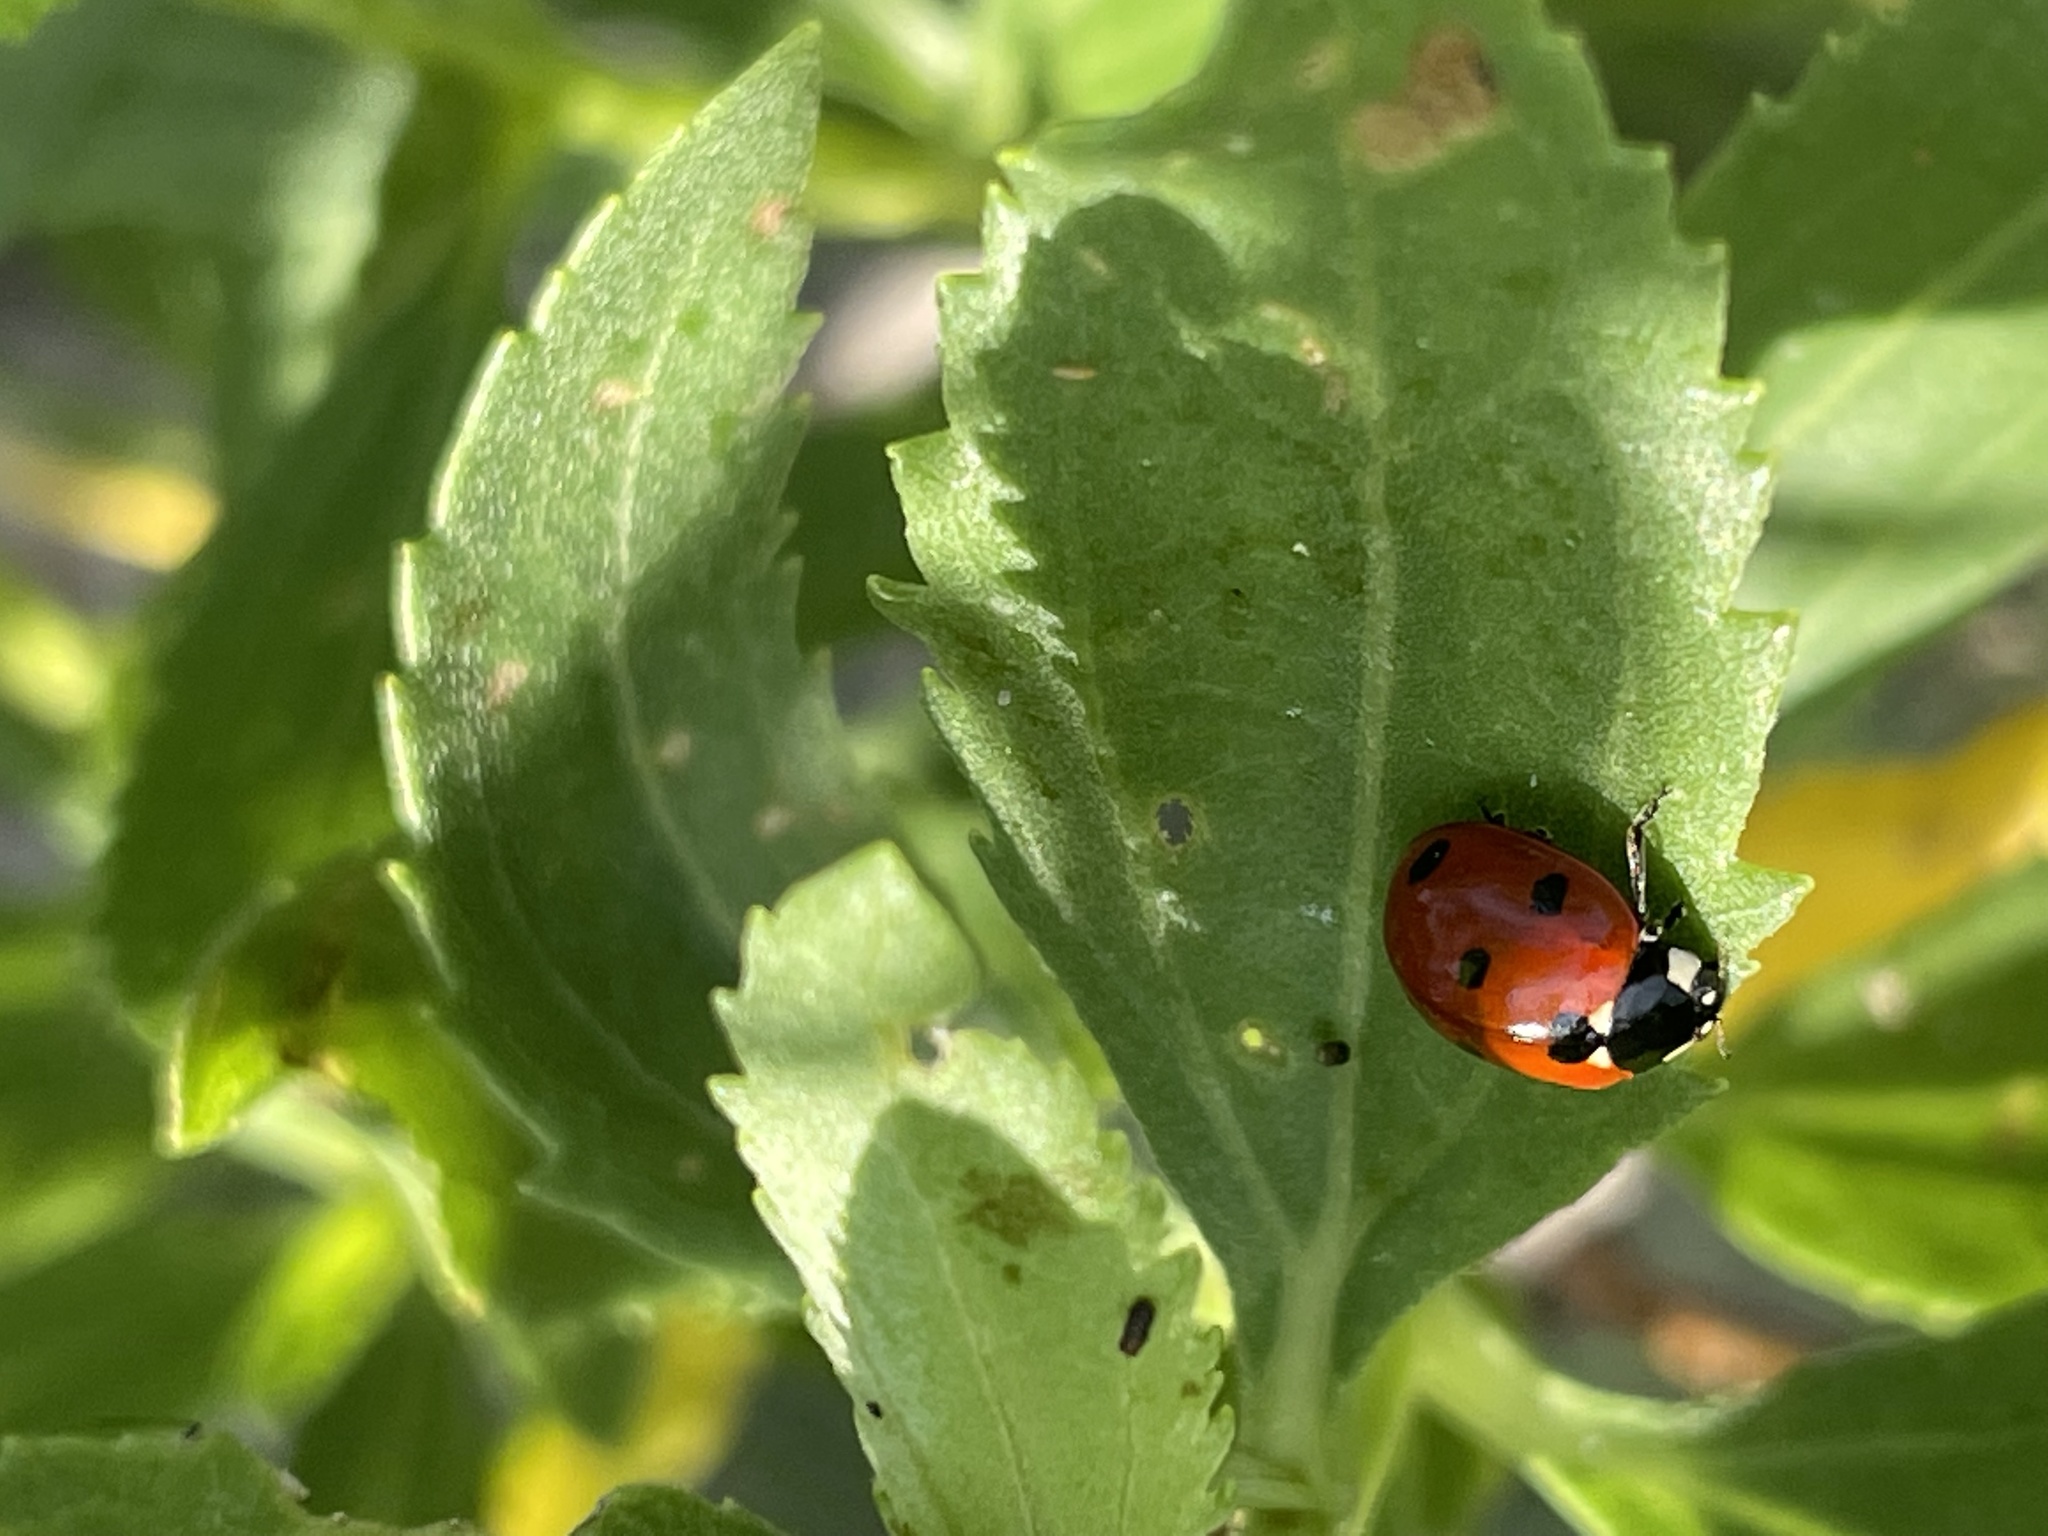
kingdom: Animalia
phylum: Arthropoda
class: Insecta
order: Coleoptera
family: Coccinellidae
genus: Coccinella
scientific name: Coccinella septempunctata
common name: Sevenspotted lady beetle
